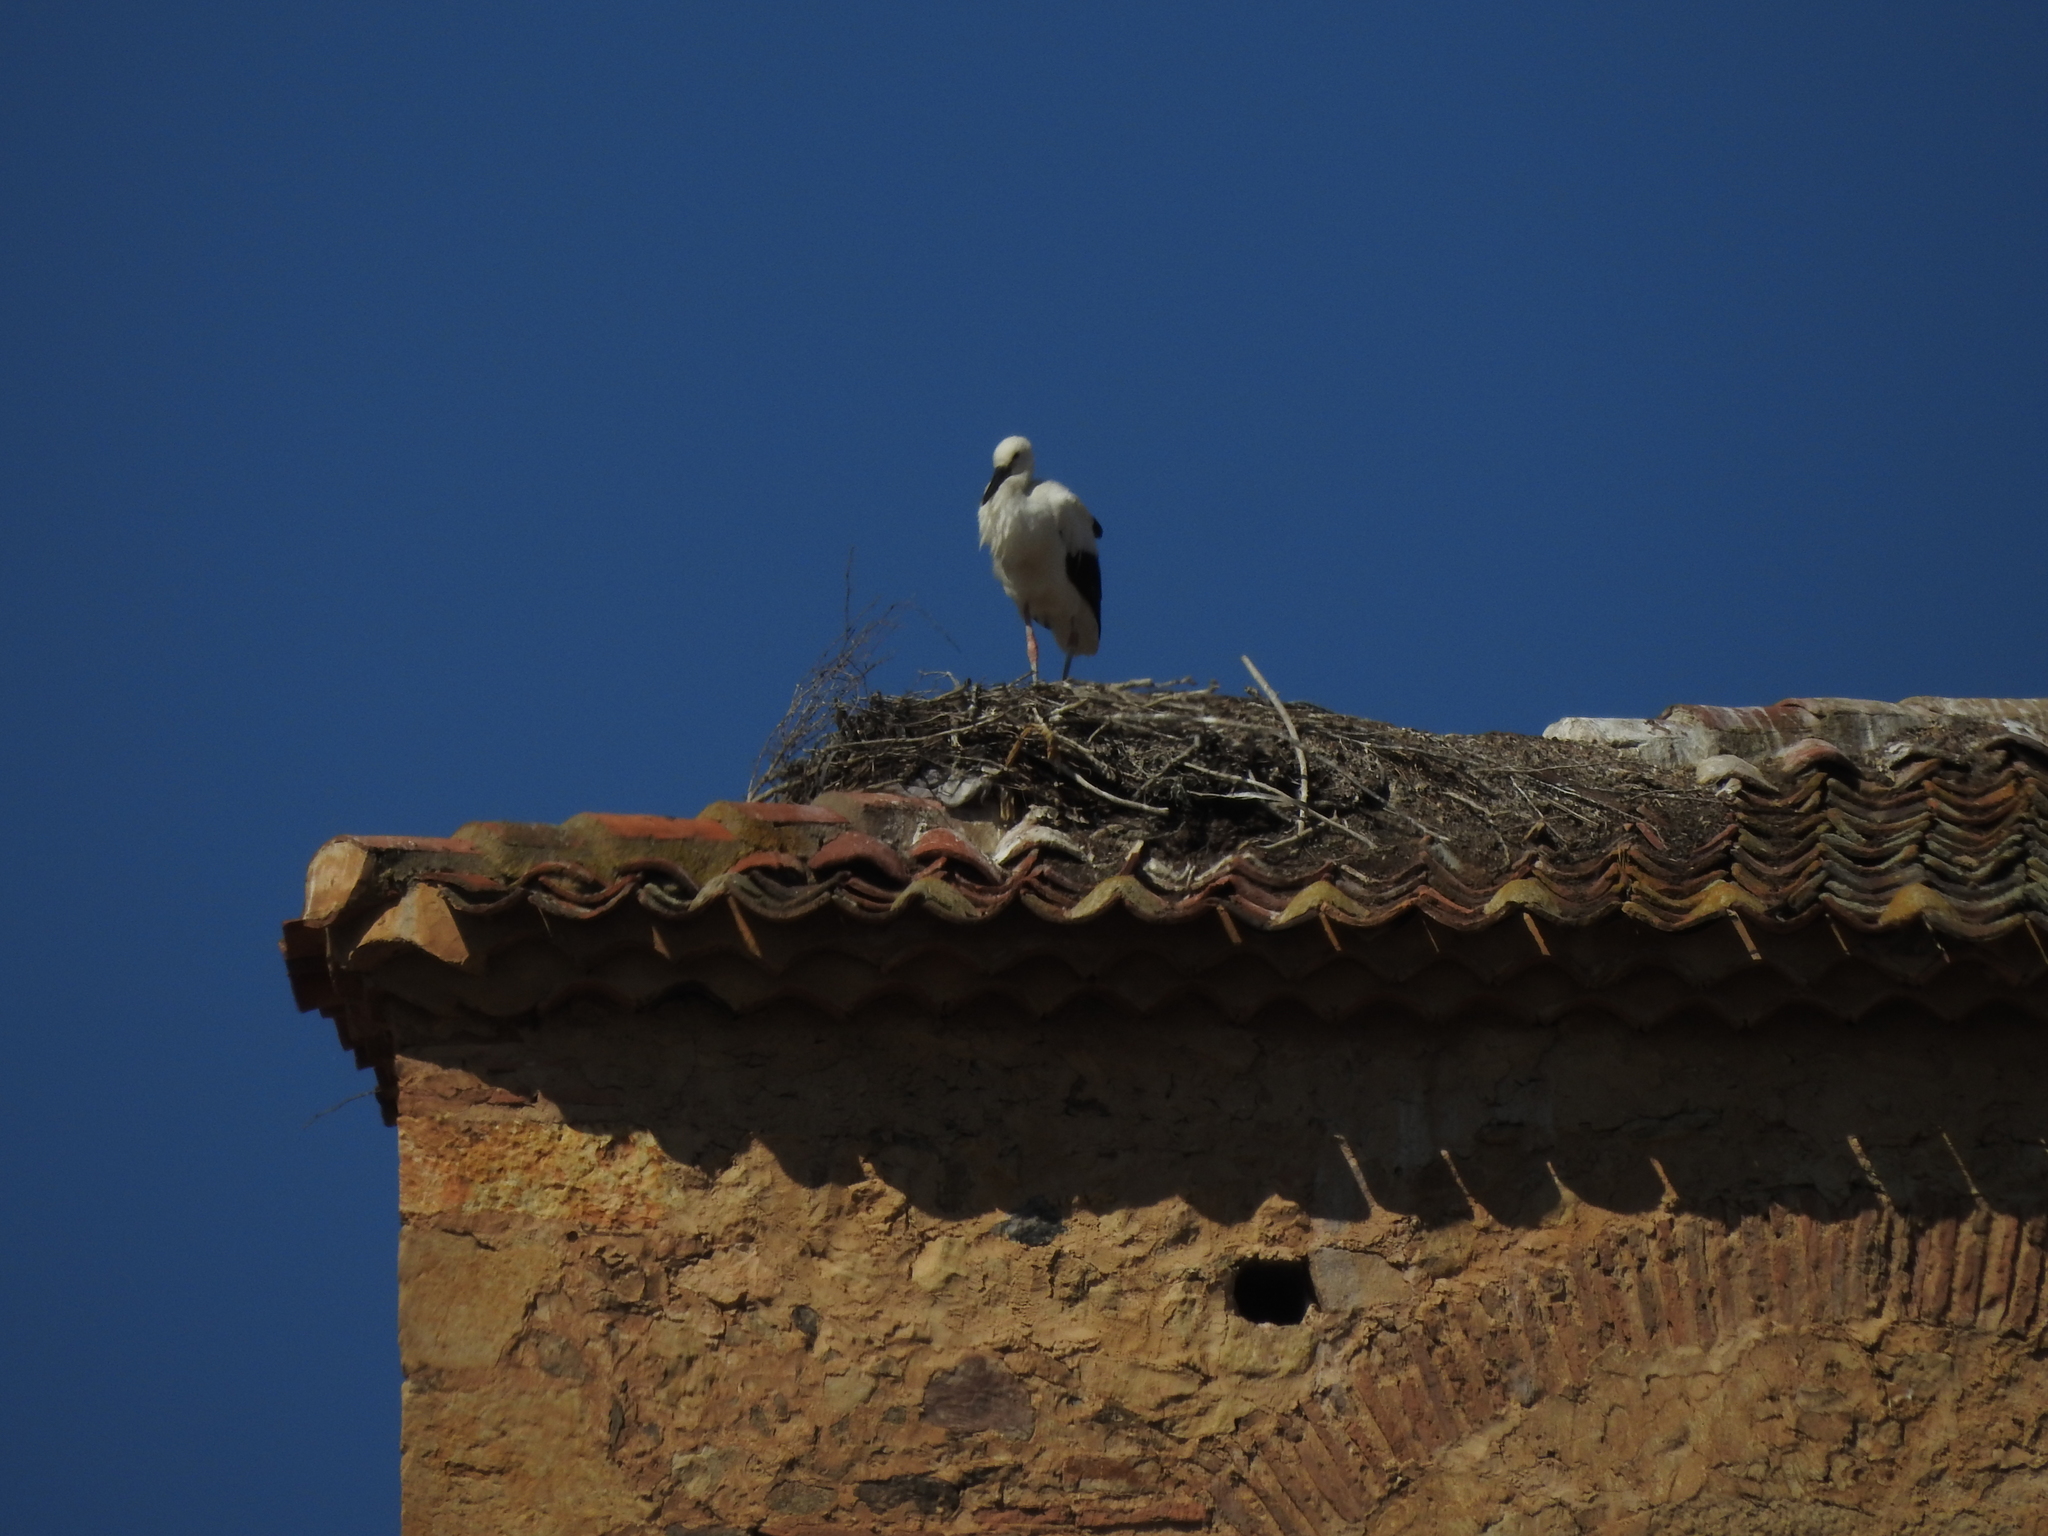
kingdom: Animalia
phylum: Chordata
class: Aves
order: Ciconiiformes
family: Ciconiidae
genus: Ciconia
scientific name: Ciconia ciconia
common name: White stork
